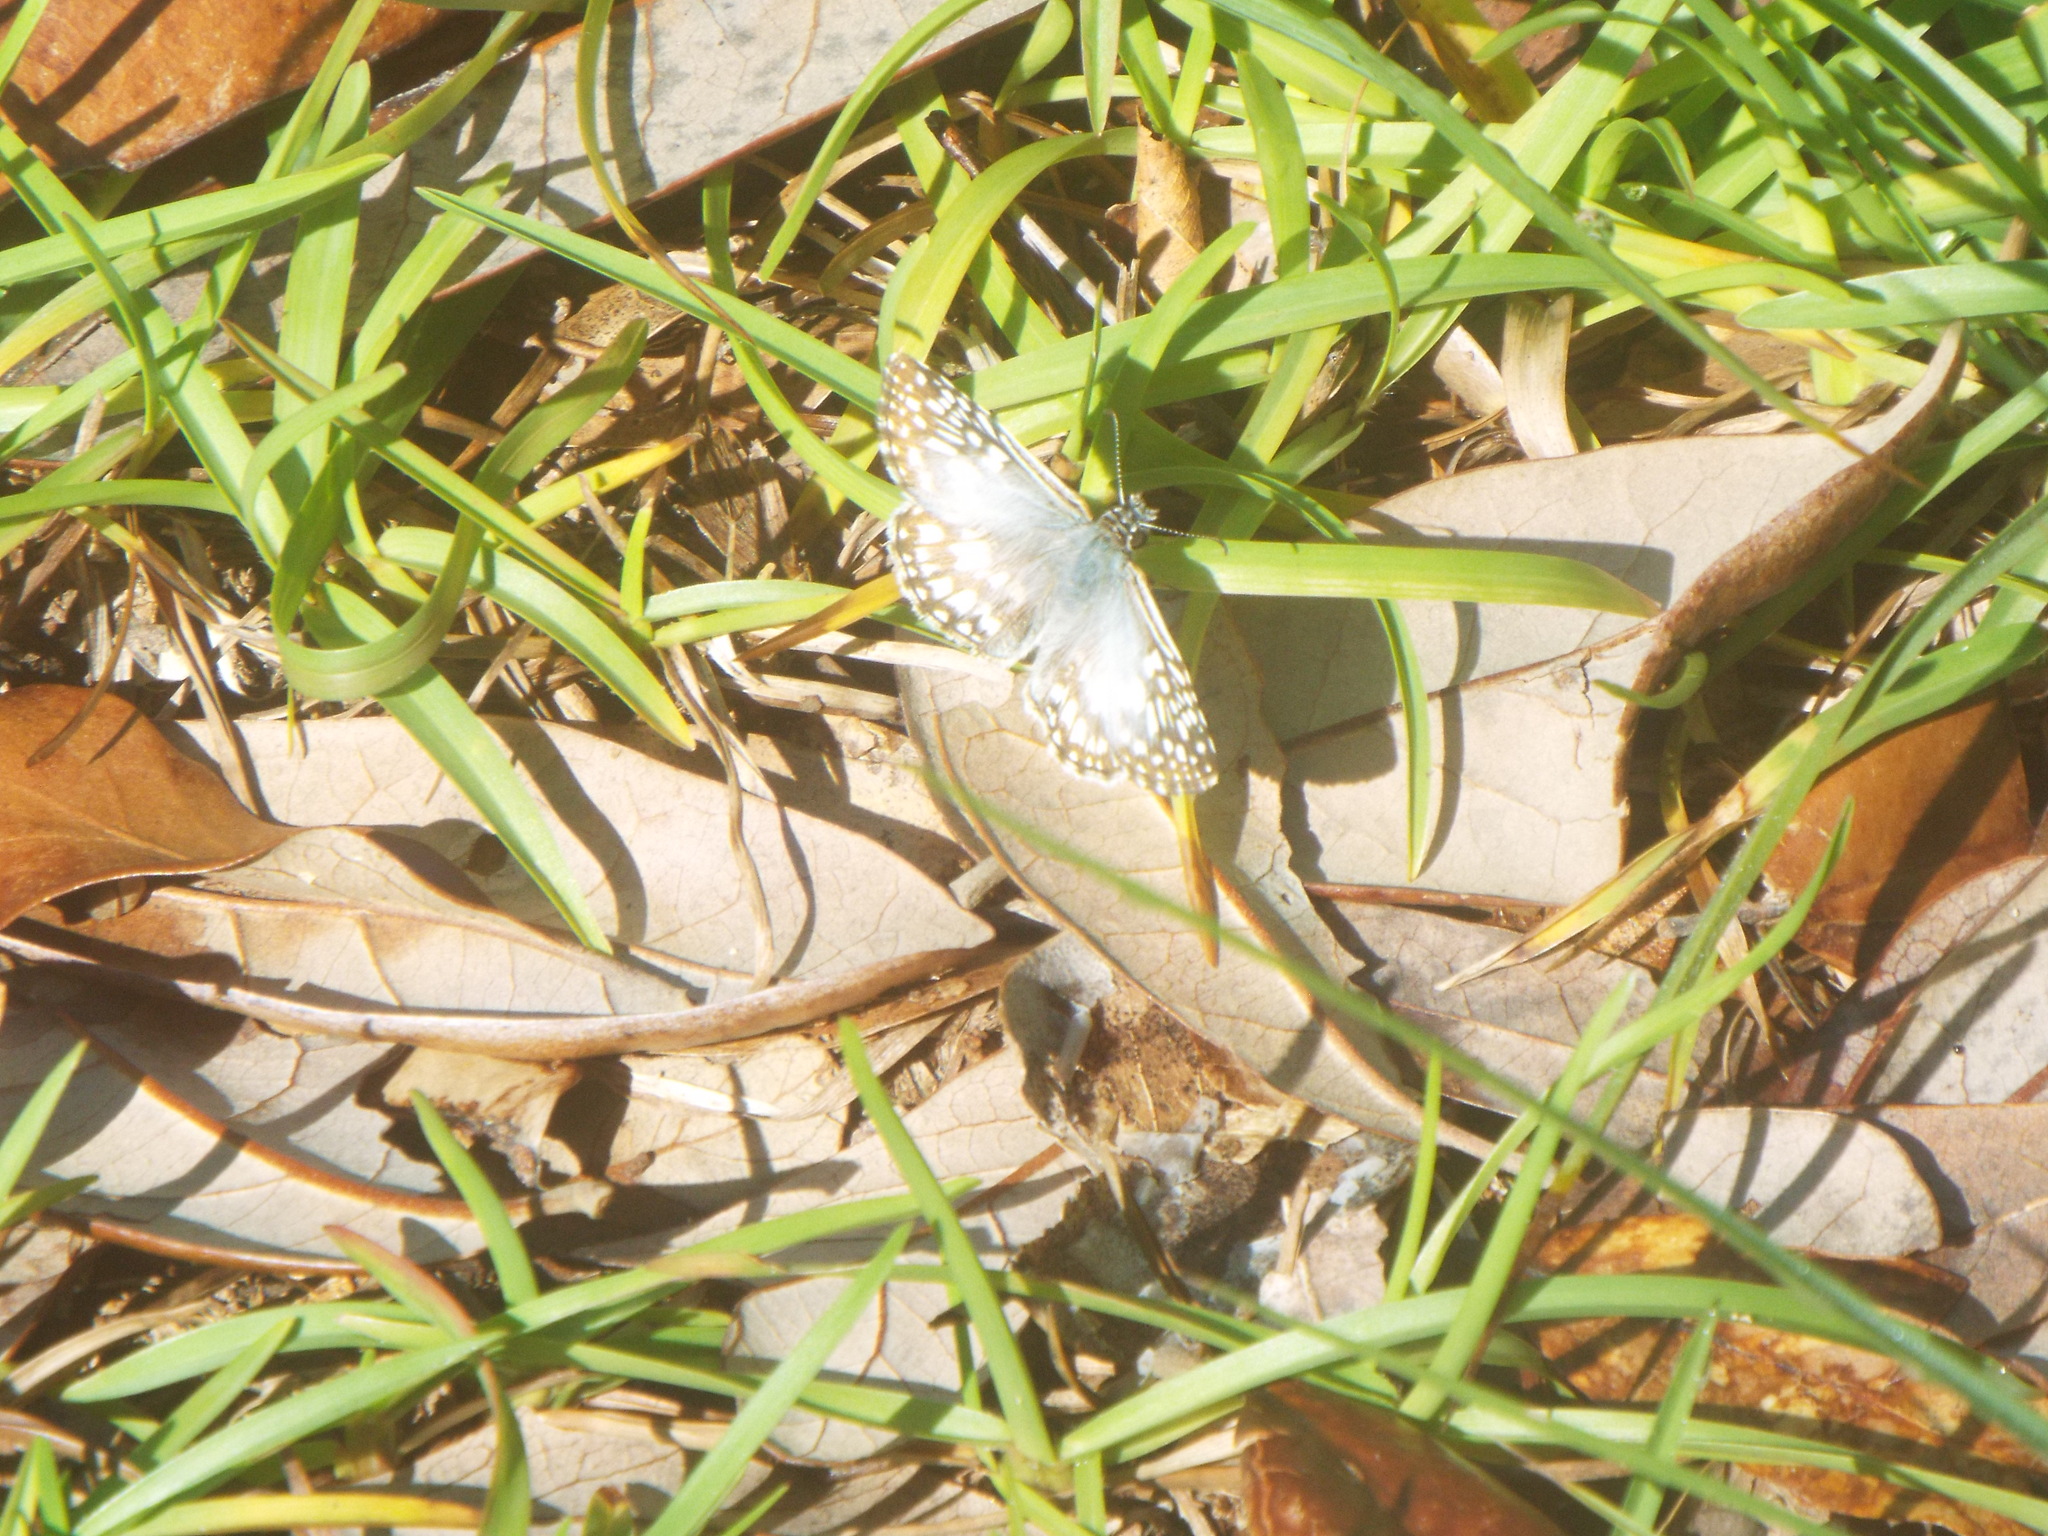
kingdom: Animalia
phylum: Arthropoda
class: Insecta
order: Lepidoptera
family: Hesperiidae
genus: Pyrgus
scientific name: Pyrgus oileus
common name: Tropical checkered-skipper
